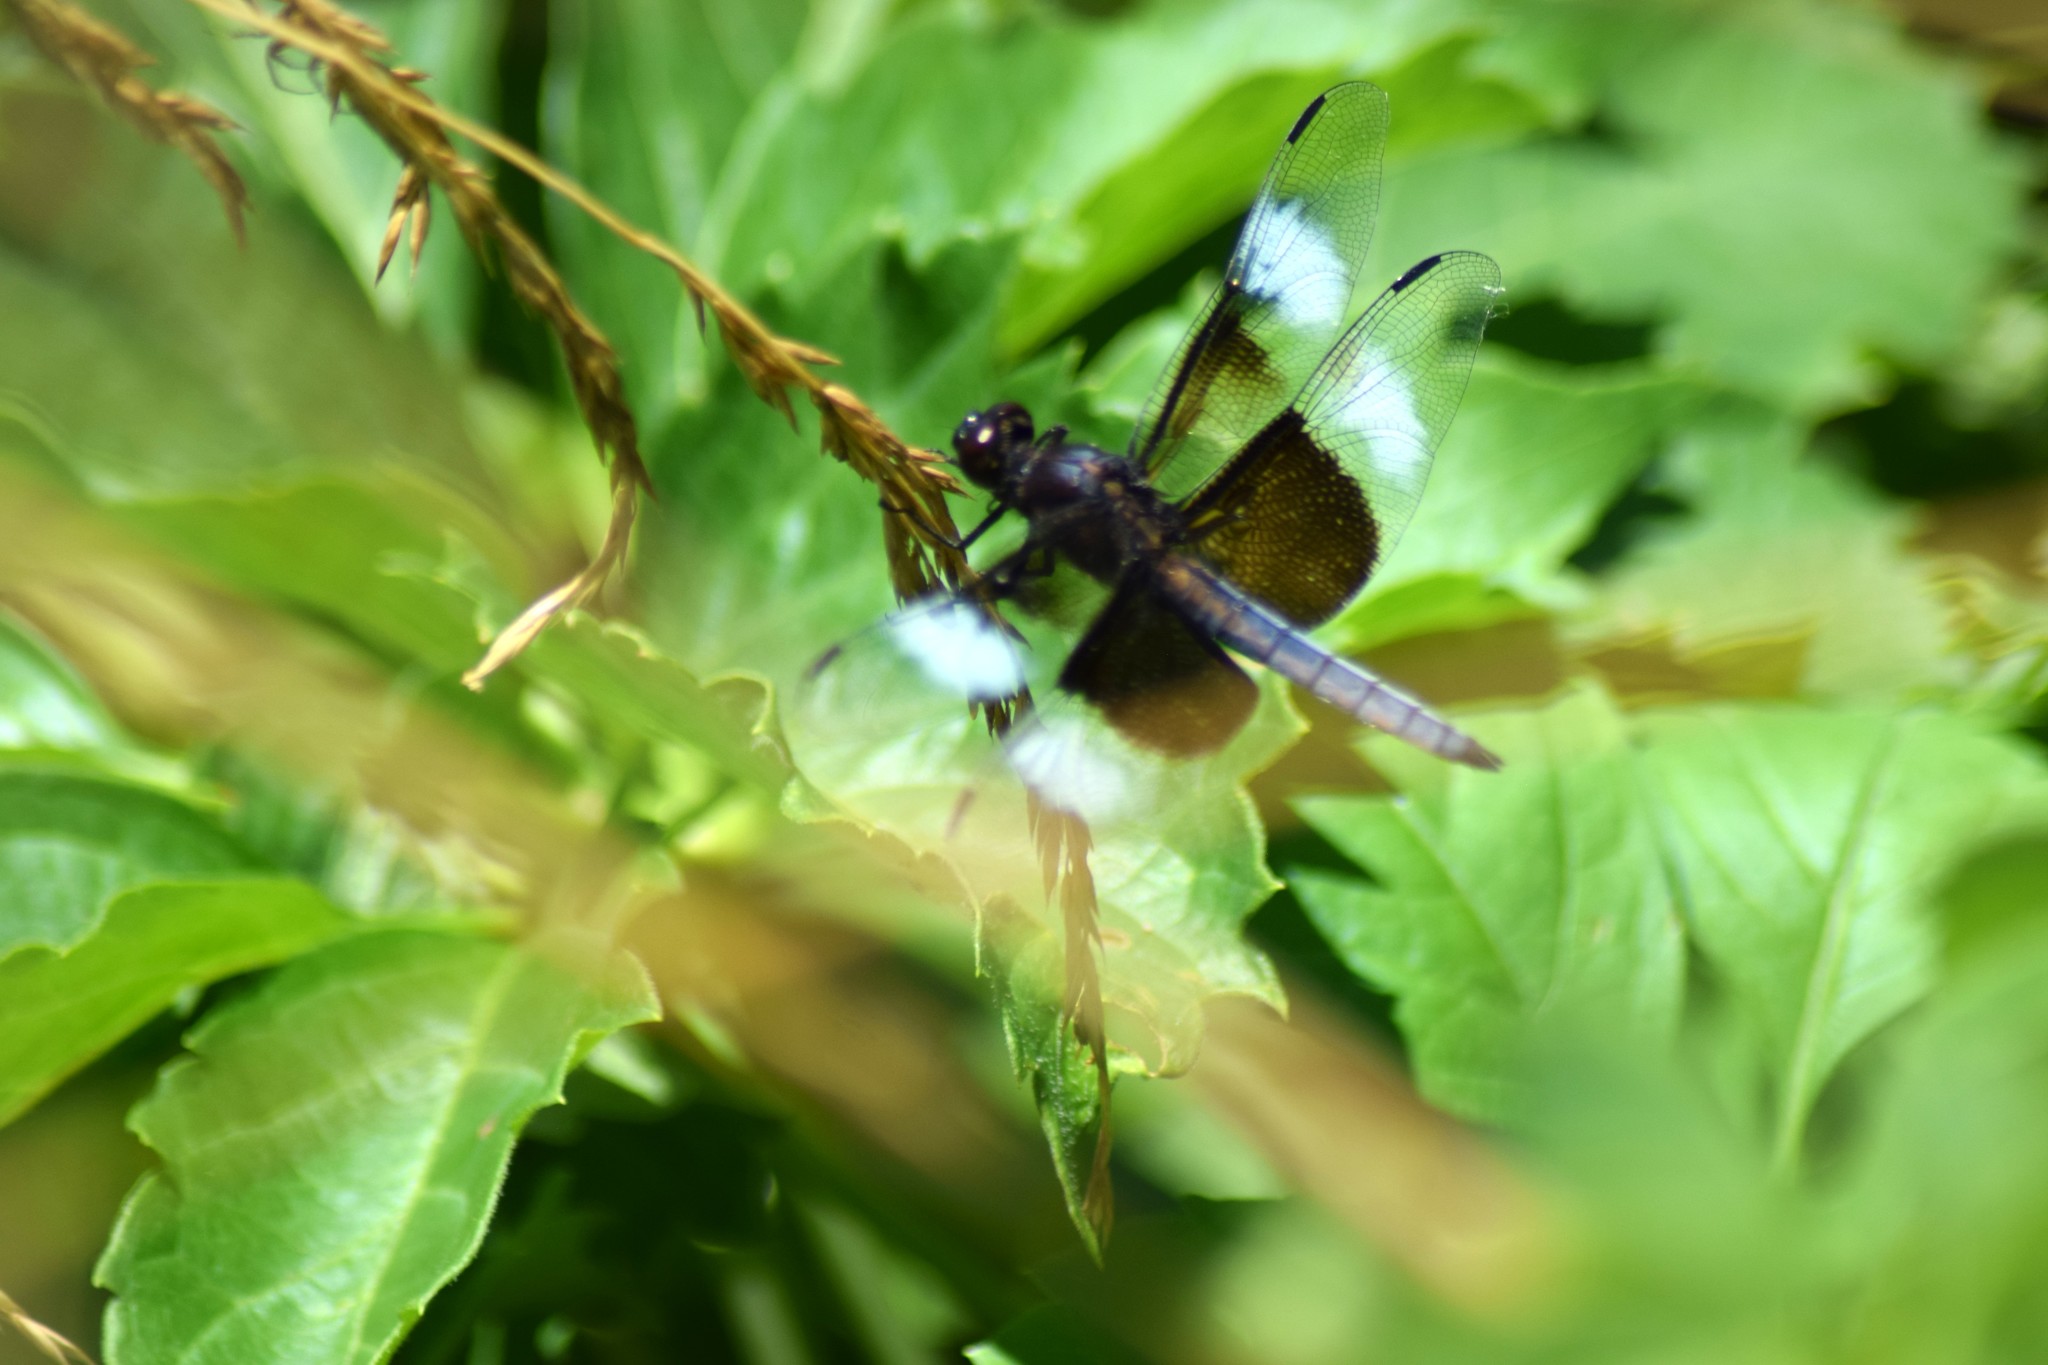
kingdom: Animalia
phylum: Arthropoda
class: Insecta
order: Odonata
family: Libellulidae
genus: Libellula
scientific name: Libellula luctuosa
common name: Widow skimmer
